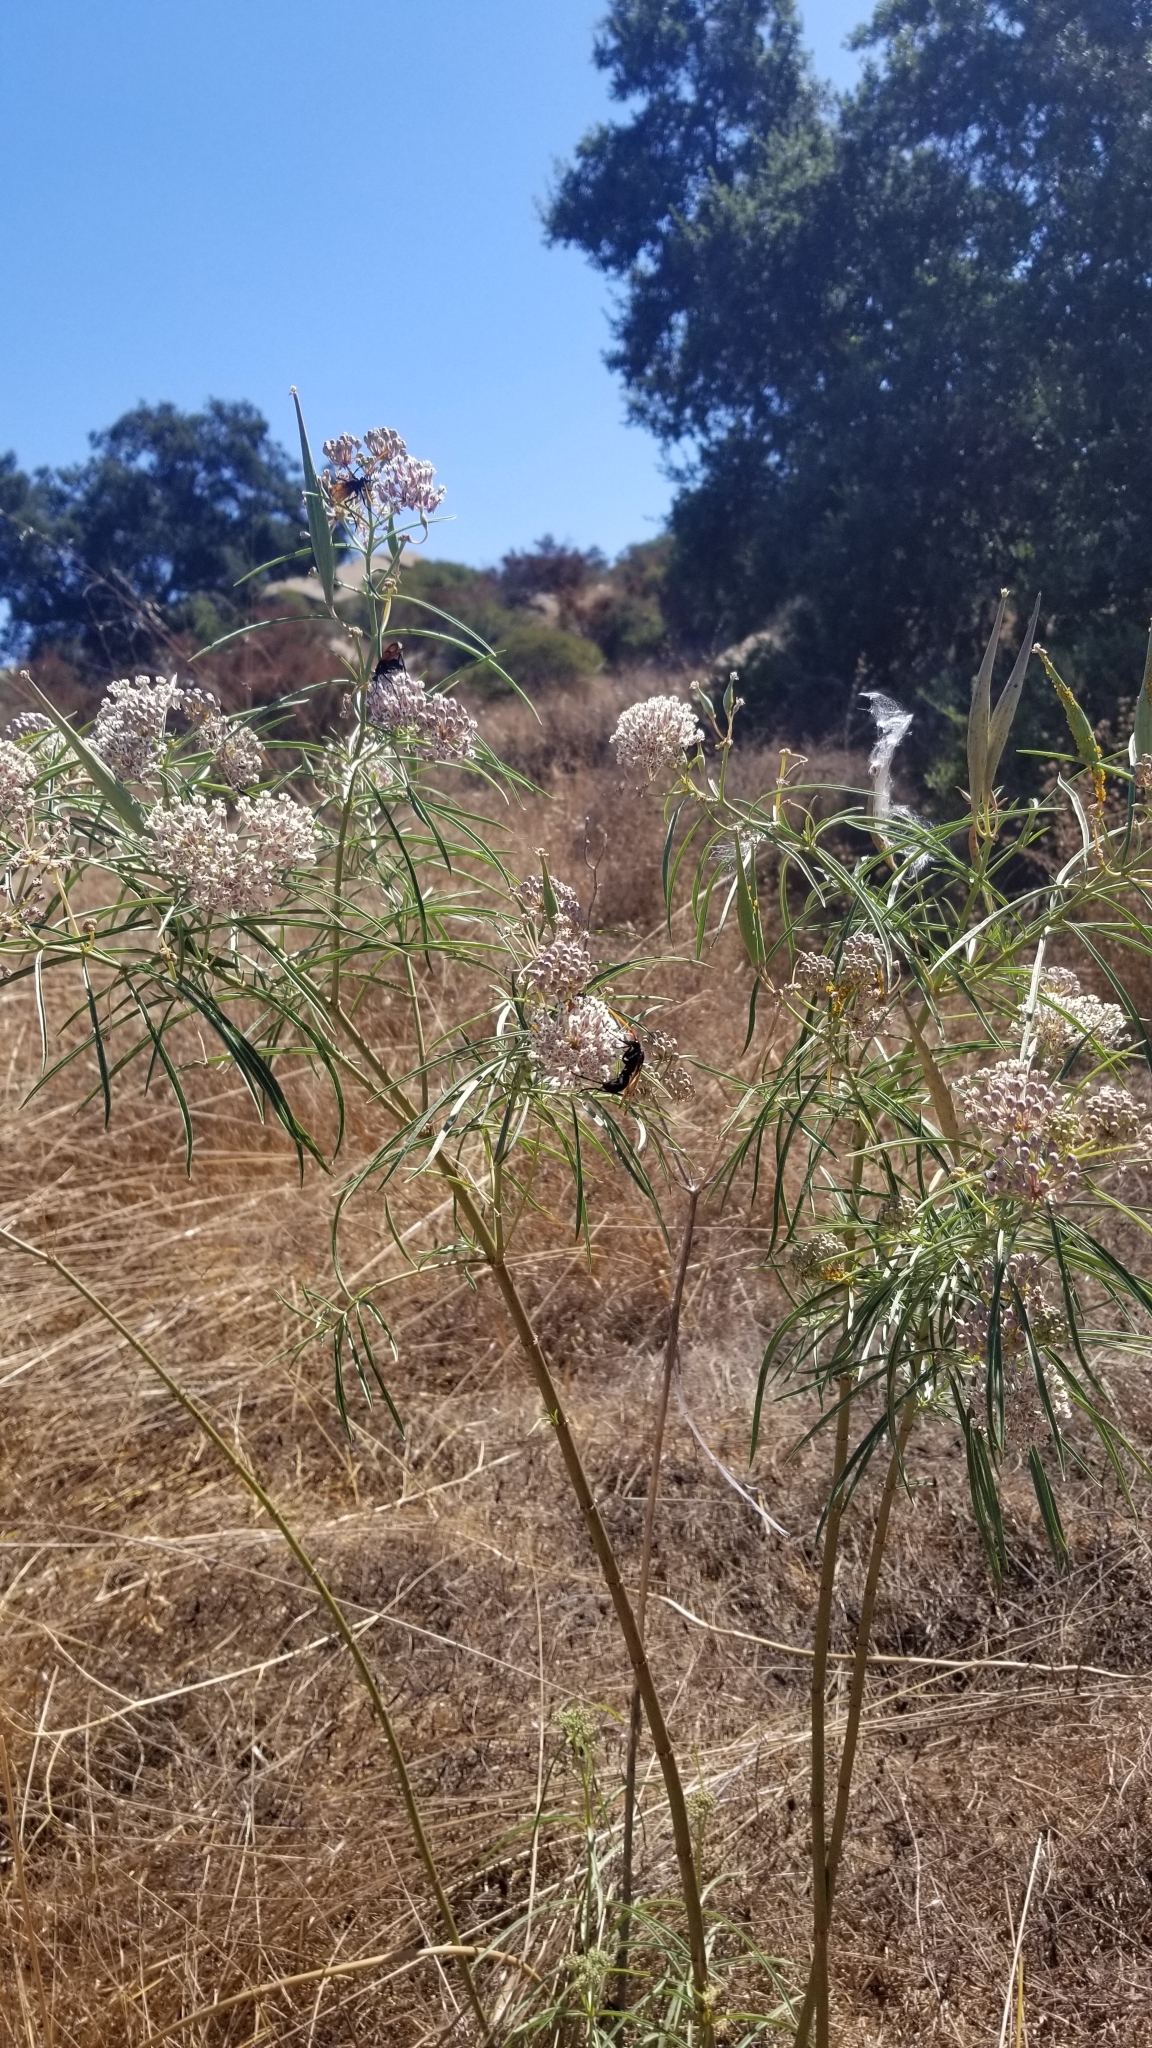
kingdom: Plantae
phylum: Tracheophyta
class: Magnoliopsida
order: Gentianales
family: Apocynaceae
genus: Asclepias
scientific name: Asclepias fascicularis
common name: Mexican milkweed
